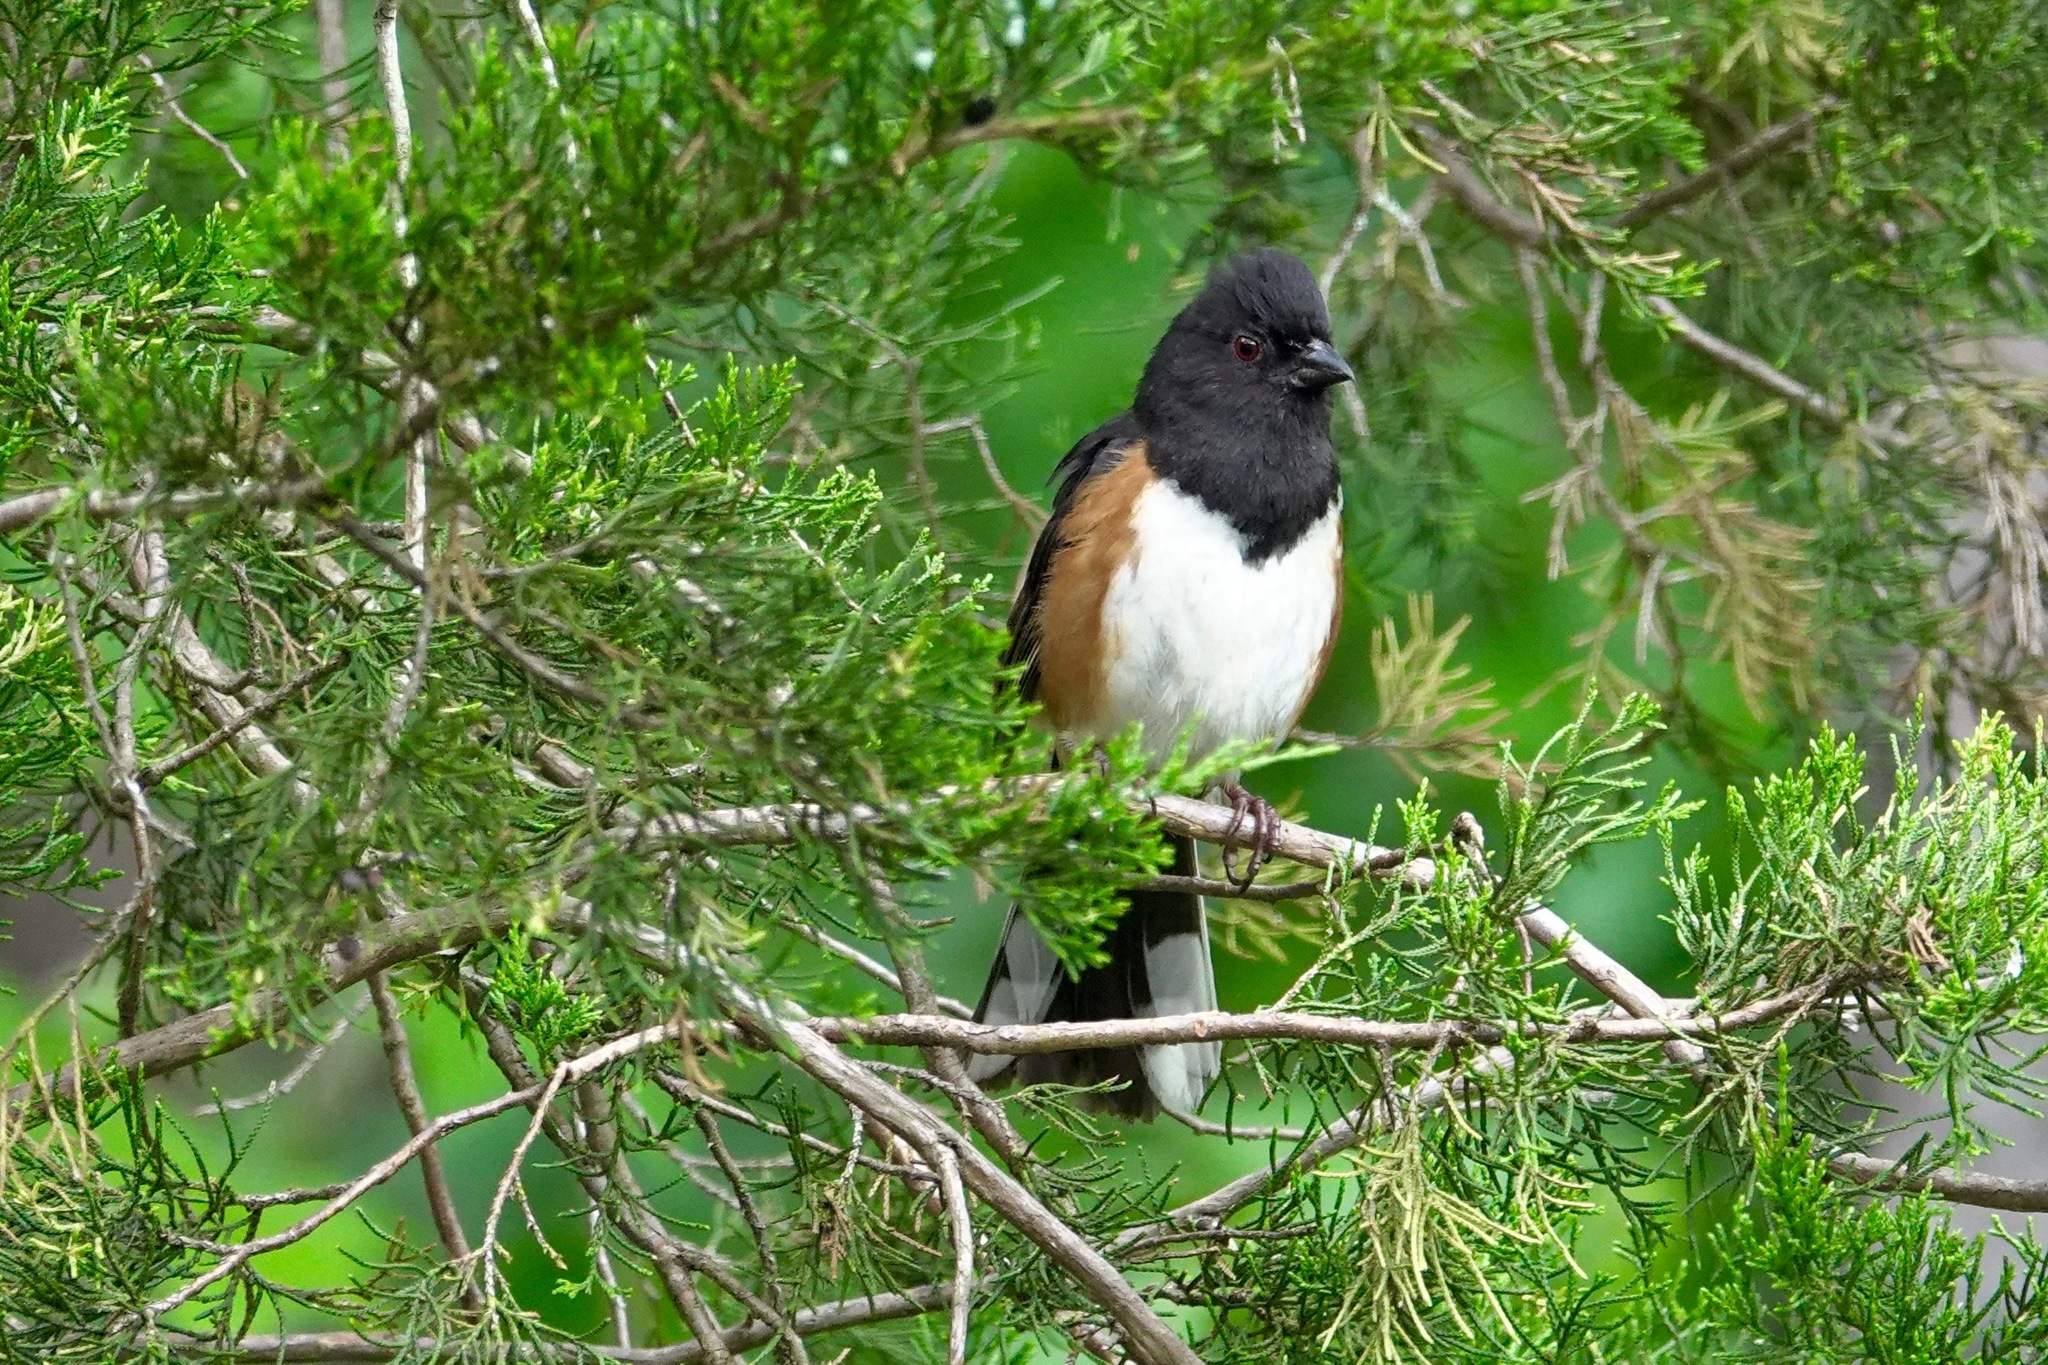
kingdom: Animalia
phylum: Chordata
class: Aves
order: Passeriformes
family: Passerellidae
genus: Pipilo
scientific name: Pipilo erythrophthalmus
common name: Eastern towhee
